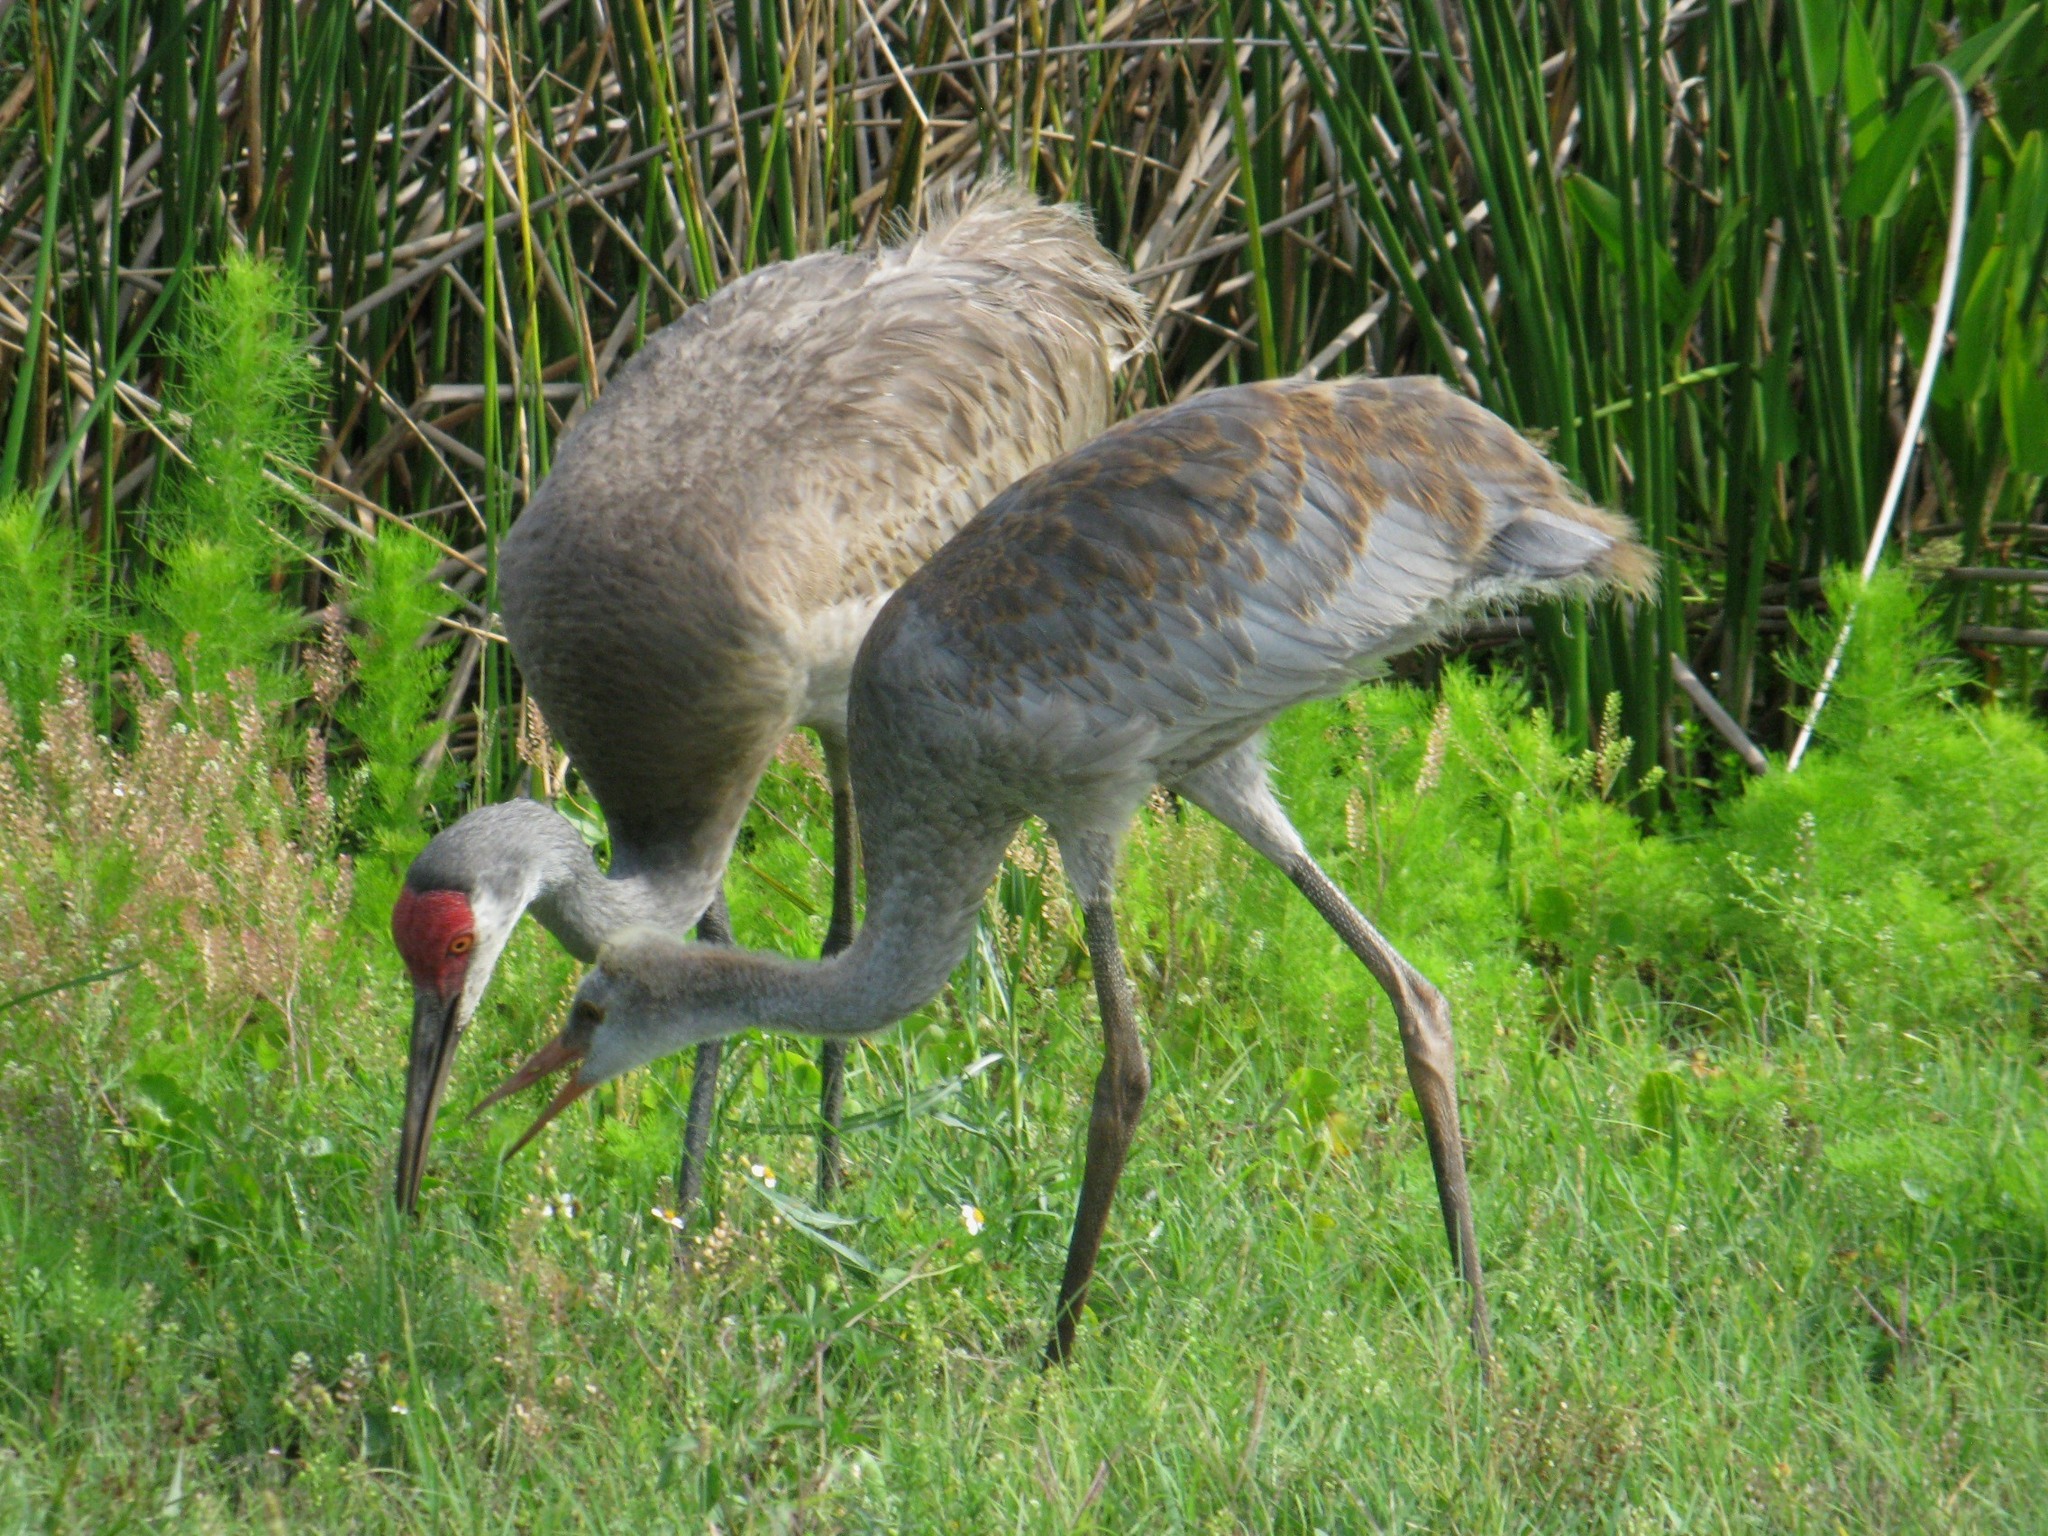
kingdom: Animalia
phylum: Chordata
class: Aves
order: Gruiformes
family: Gruidae
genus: Grus
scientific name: Grus canadensis
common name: Sandhill crane
